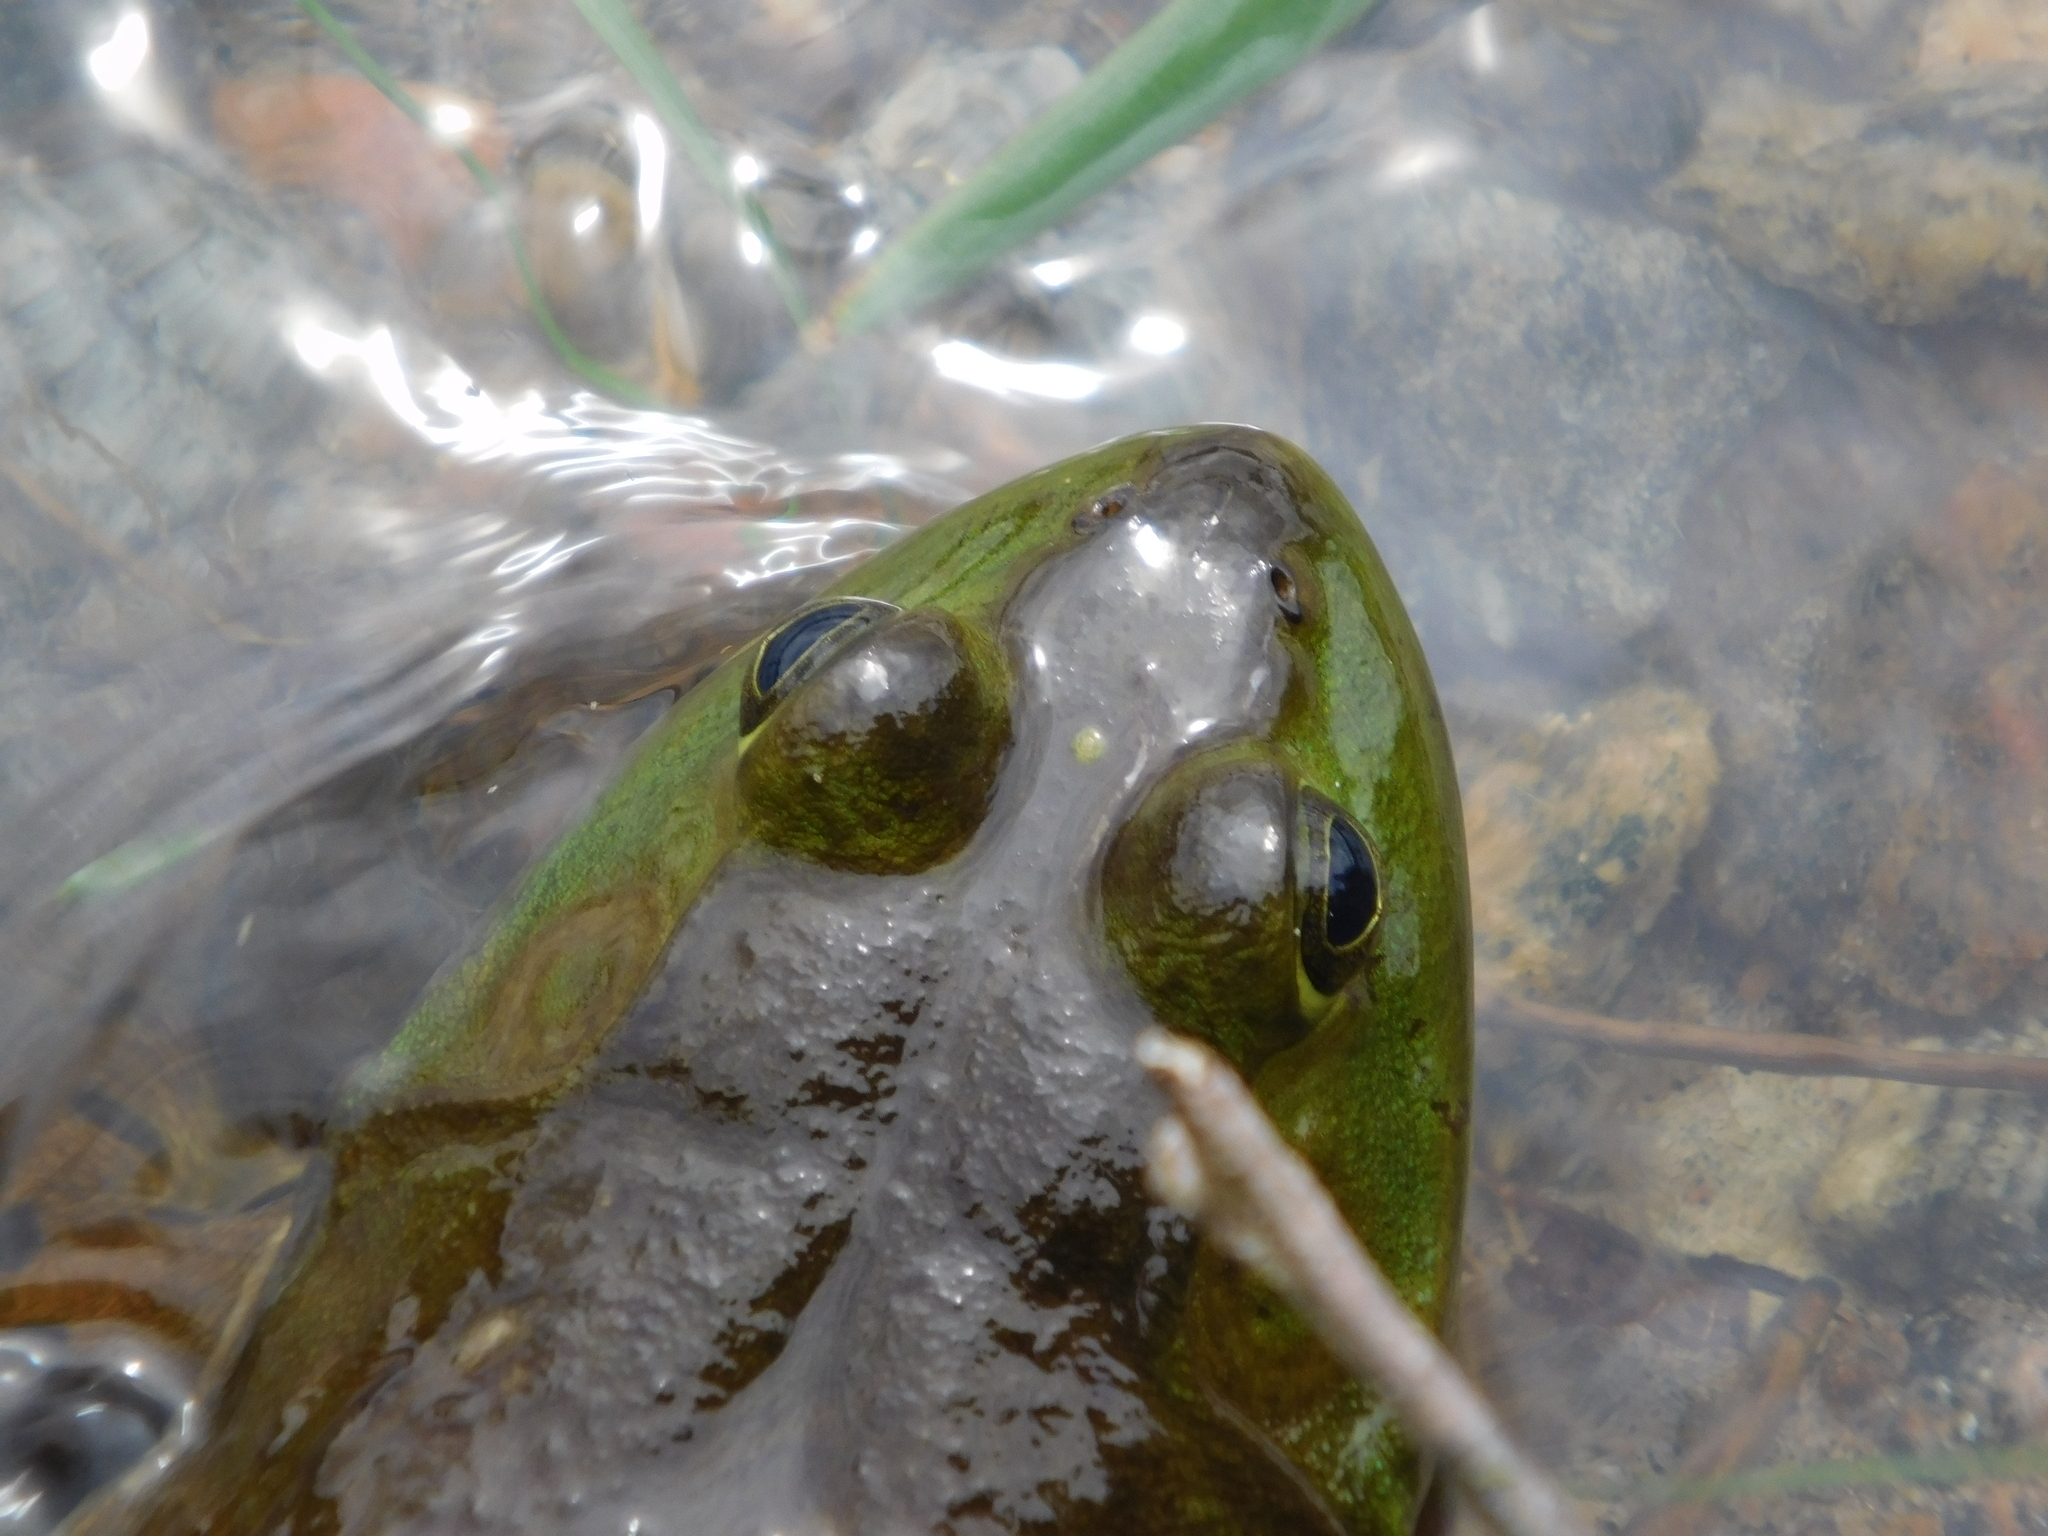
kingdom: Animalia
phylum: Chordata
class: Amphibia
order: Anura
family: Ranidae
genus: Lithobates
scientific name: Lithobates catesbeianus
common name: American bullfrog
